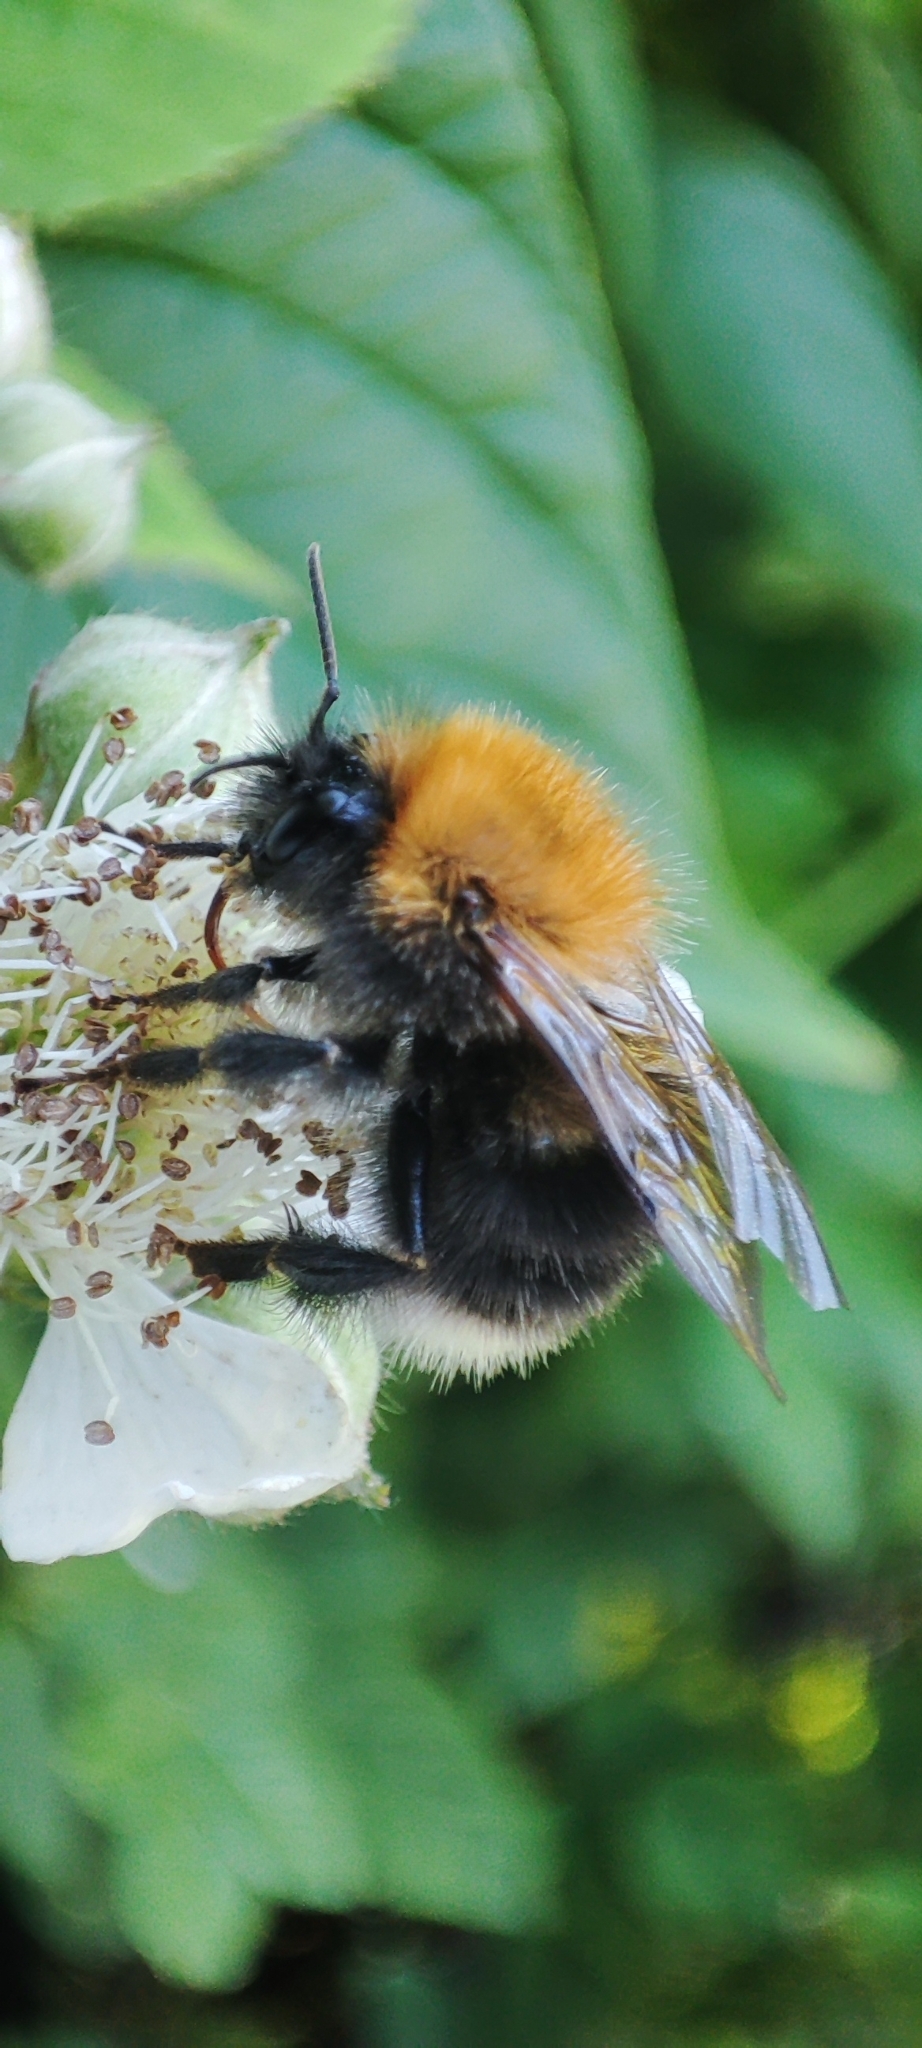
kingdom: Animalia
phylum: Arthropoda
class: Insecta
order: Hymenoptera
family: Apidae
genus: Bombus
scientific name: Bombus hypnorum
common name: New garden bumblebee
